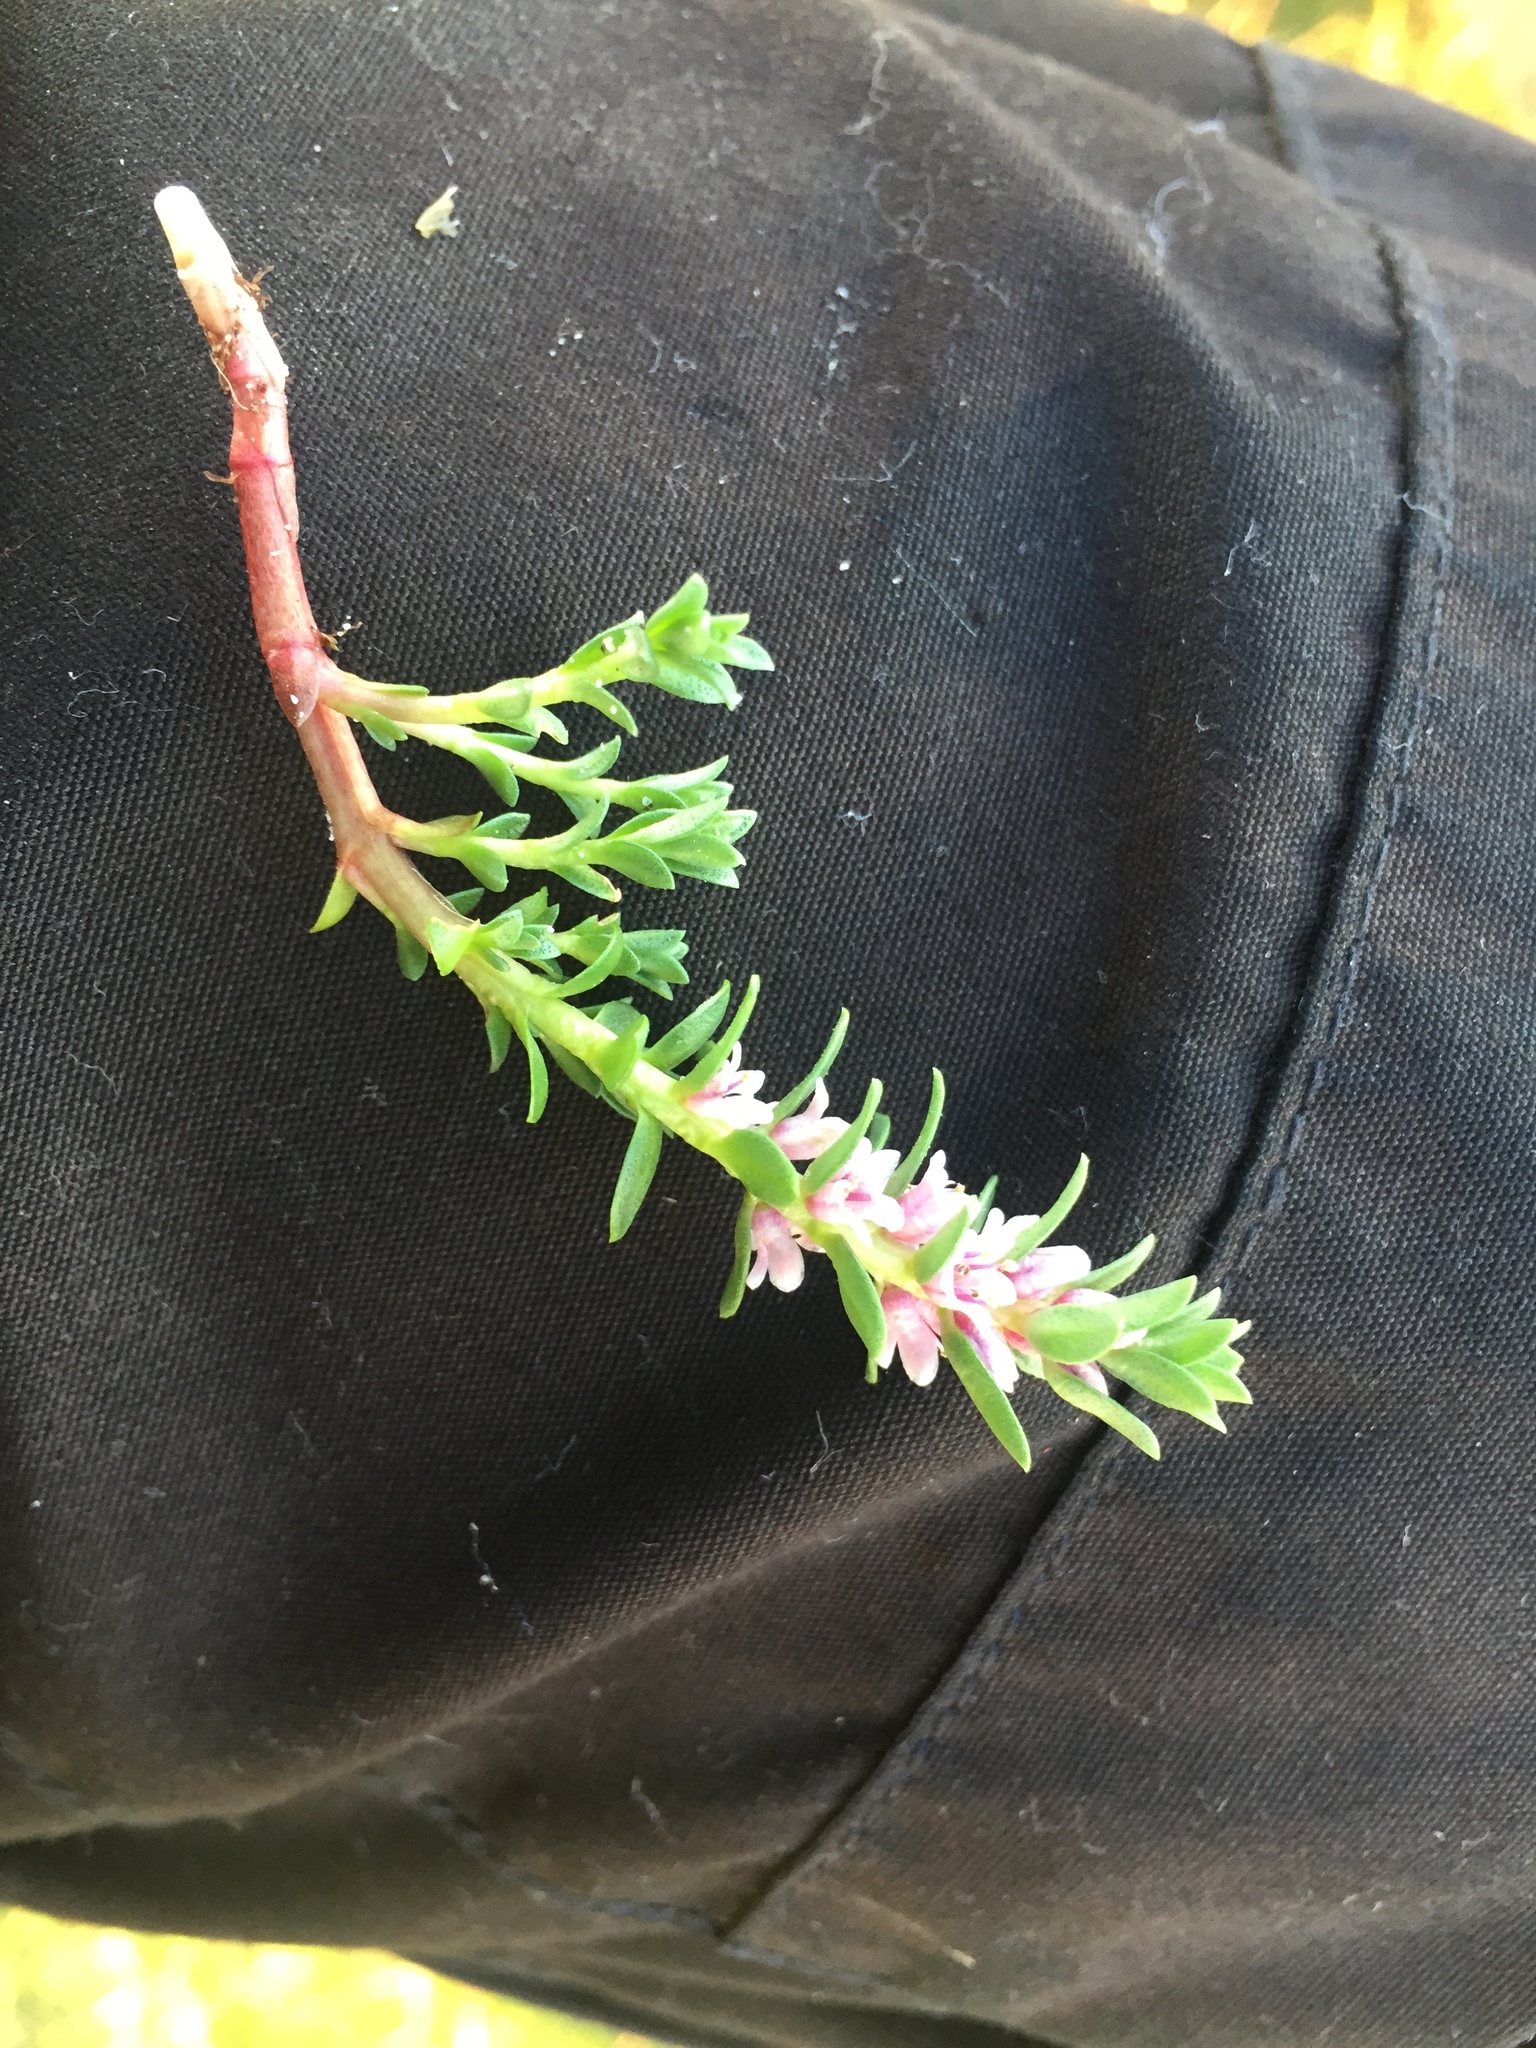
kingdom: Plantae
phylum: Tracheophyta
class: Magnoliopsida
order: Ericales
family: Primulaceae
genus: Lysimachia
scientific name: Lysimachia maritima
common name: Sea milkwort
